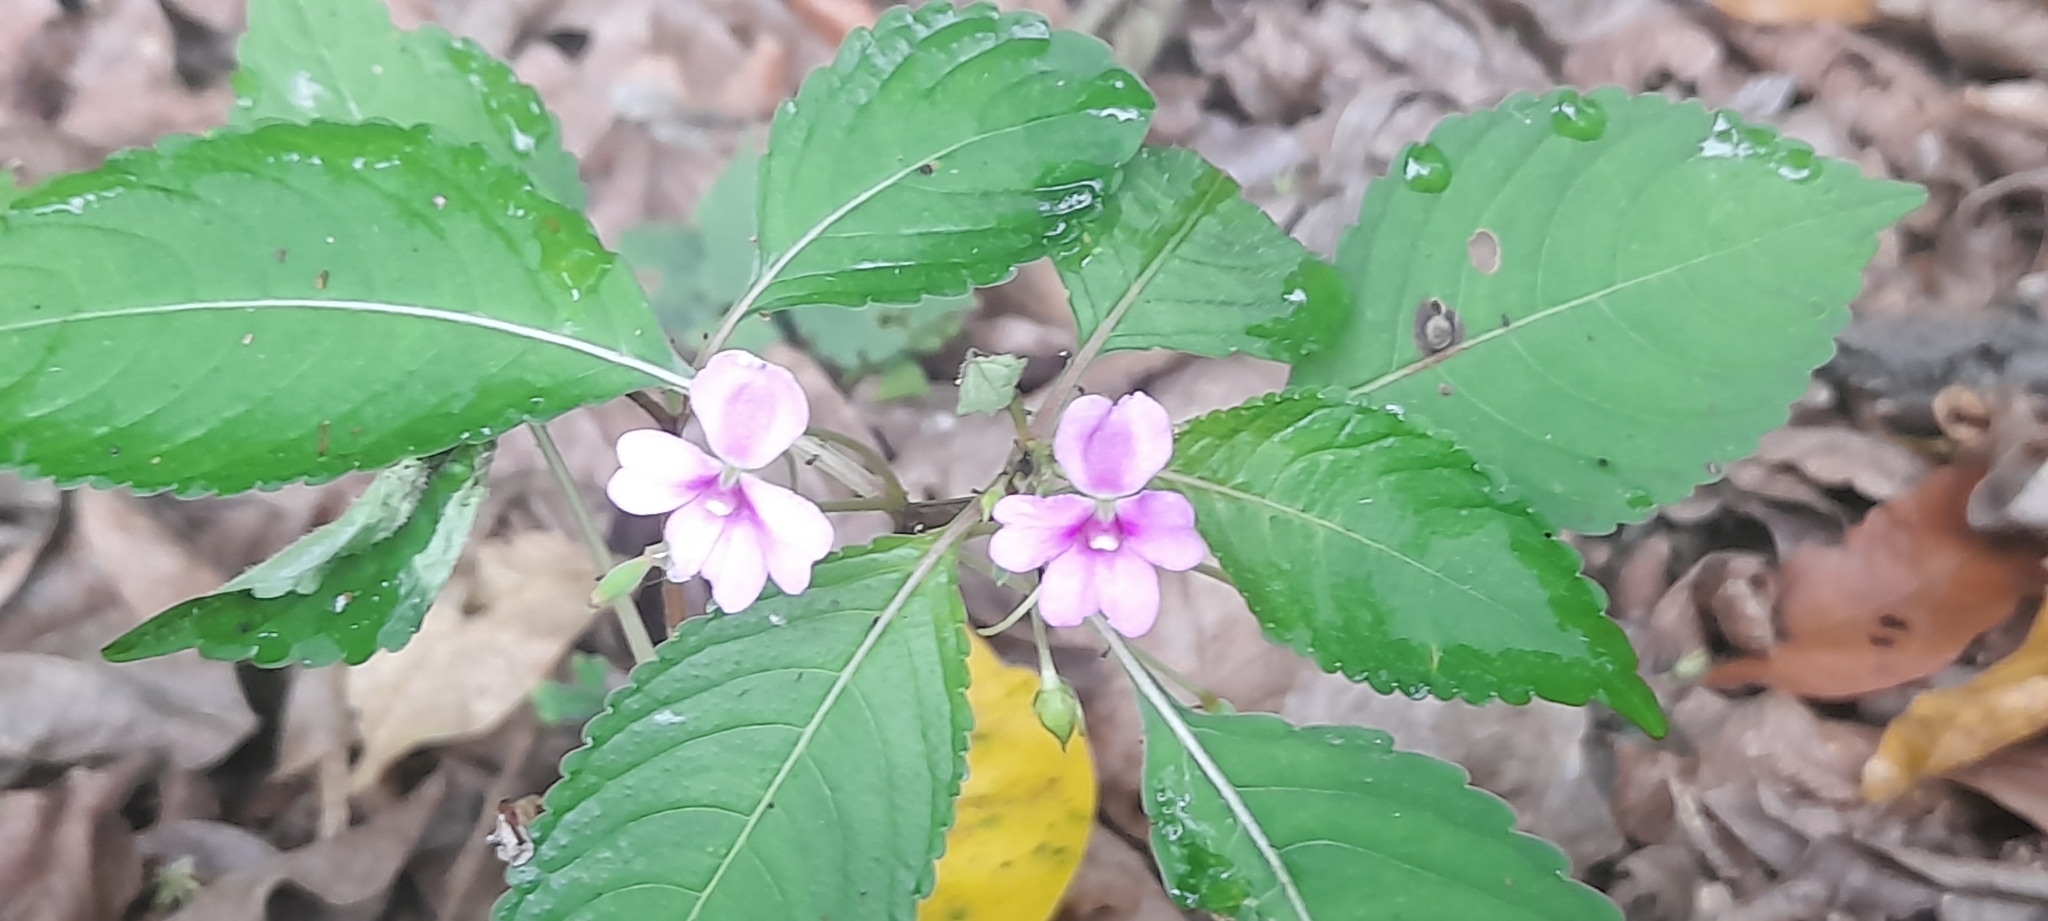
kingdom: Plantae
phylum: Tracheophyta
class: Magnoliopsida
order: Ericales
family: Balsaminaceae
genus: Impatiens
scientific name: Impatiens dasysperma
